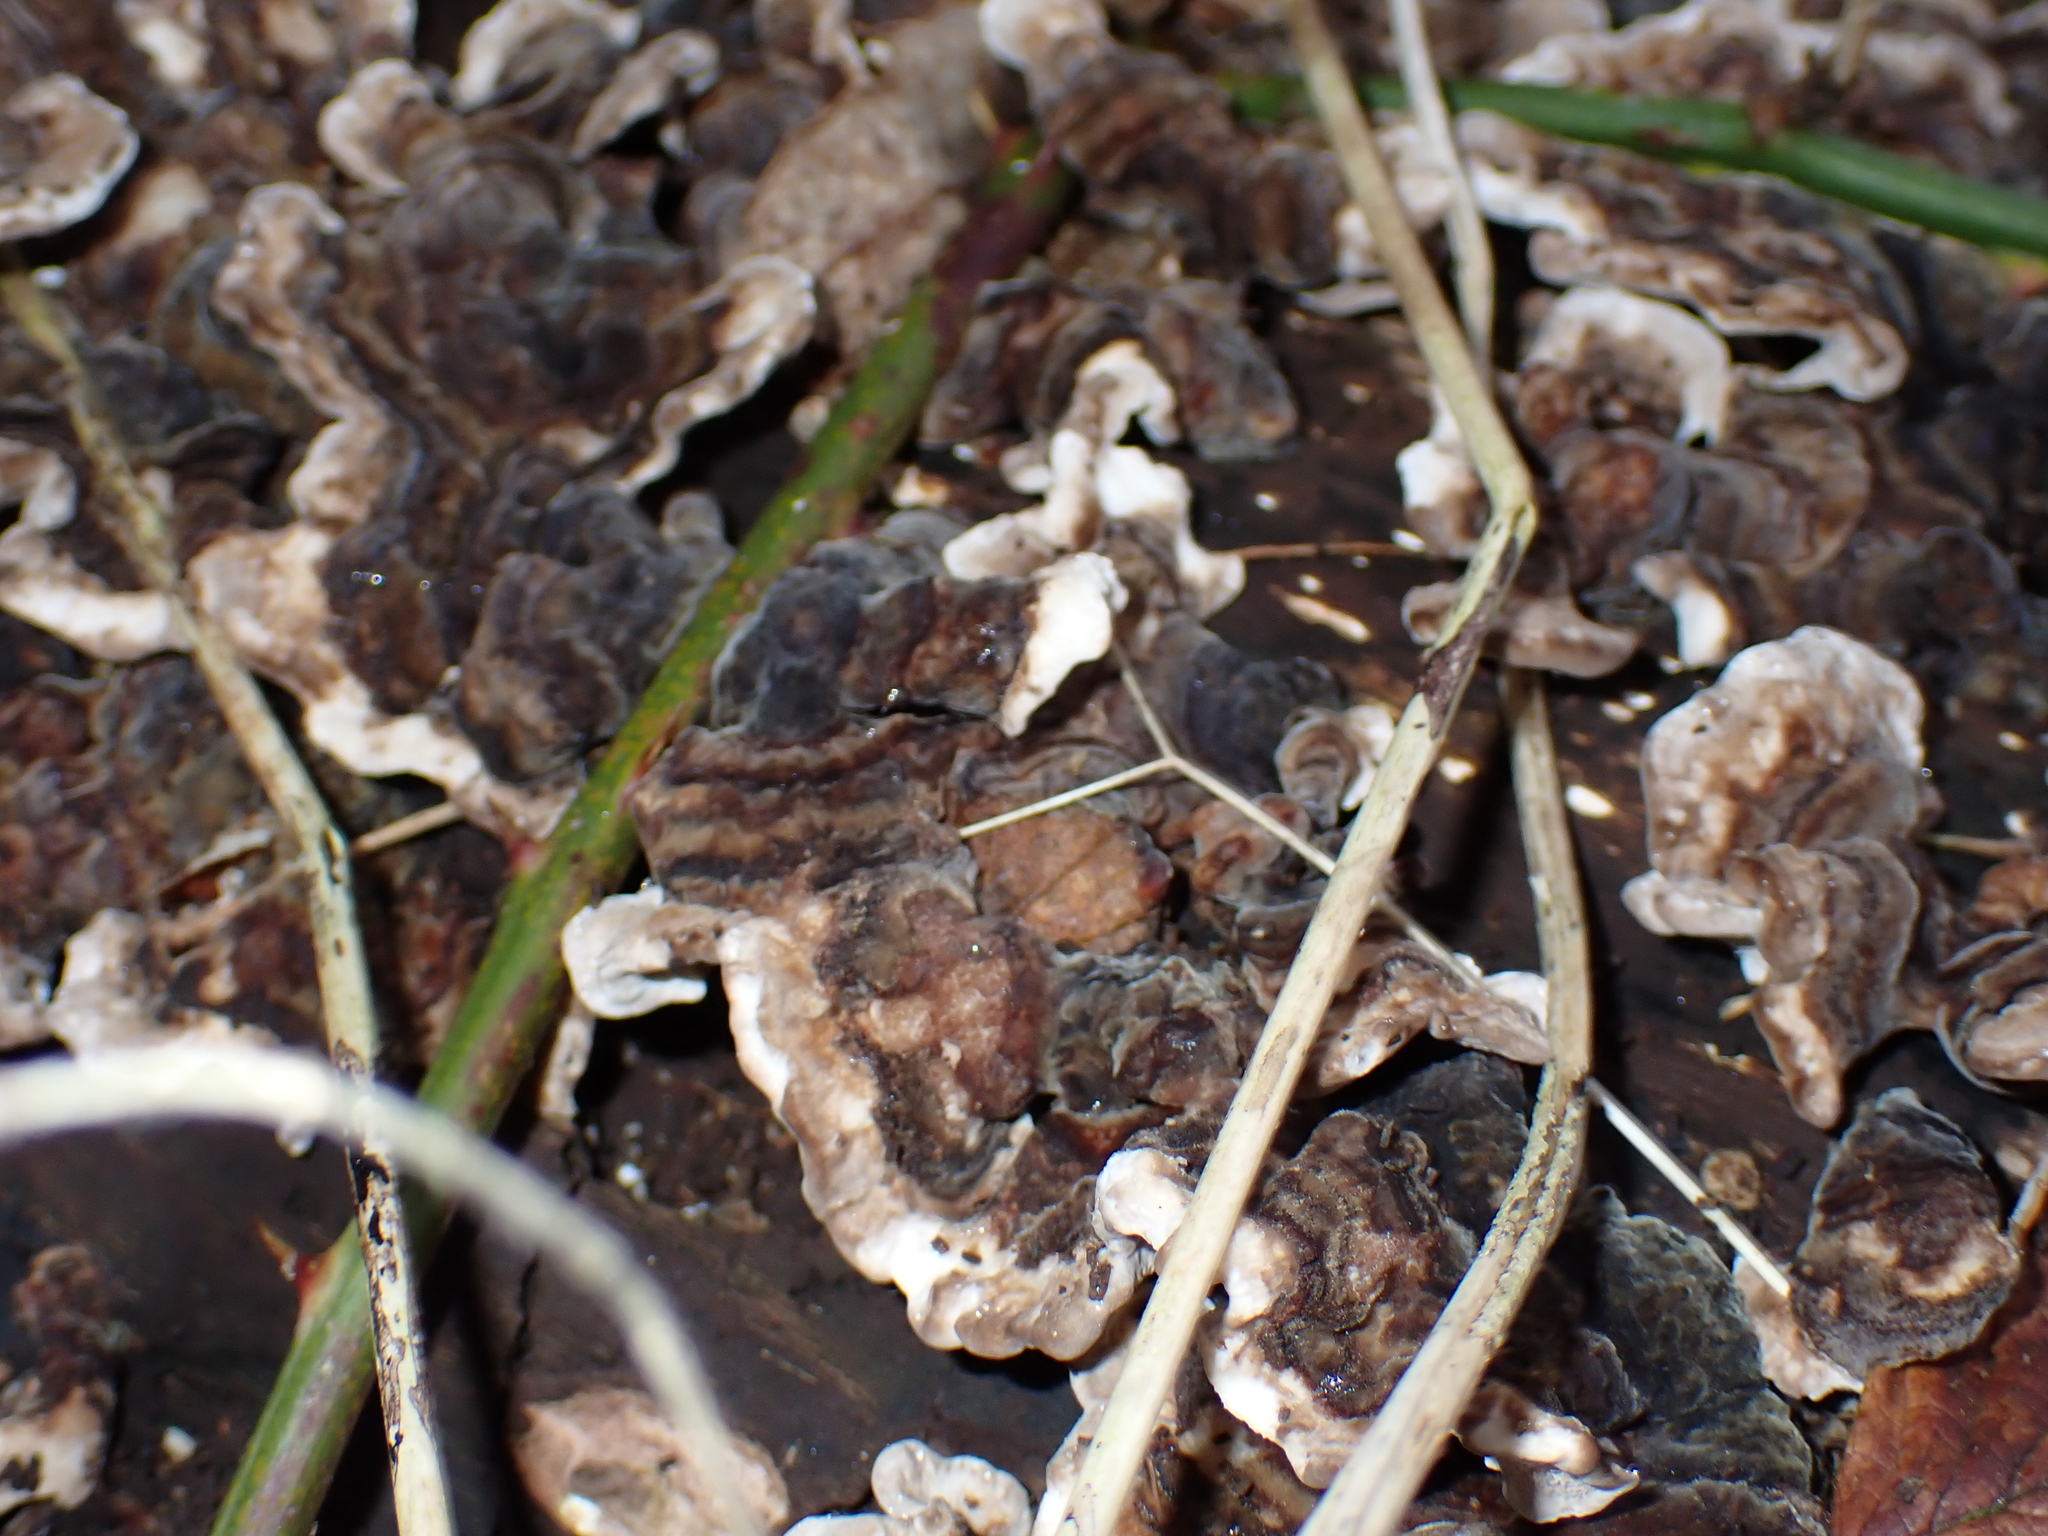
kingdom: Fungi
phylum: Basidiomycota
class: Agaricomycetes
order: Polyporales
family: Polyporaceae
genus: Trametes
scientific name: Trametes versicolor
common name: Turkeytail
